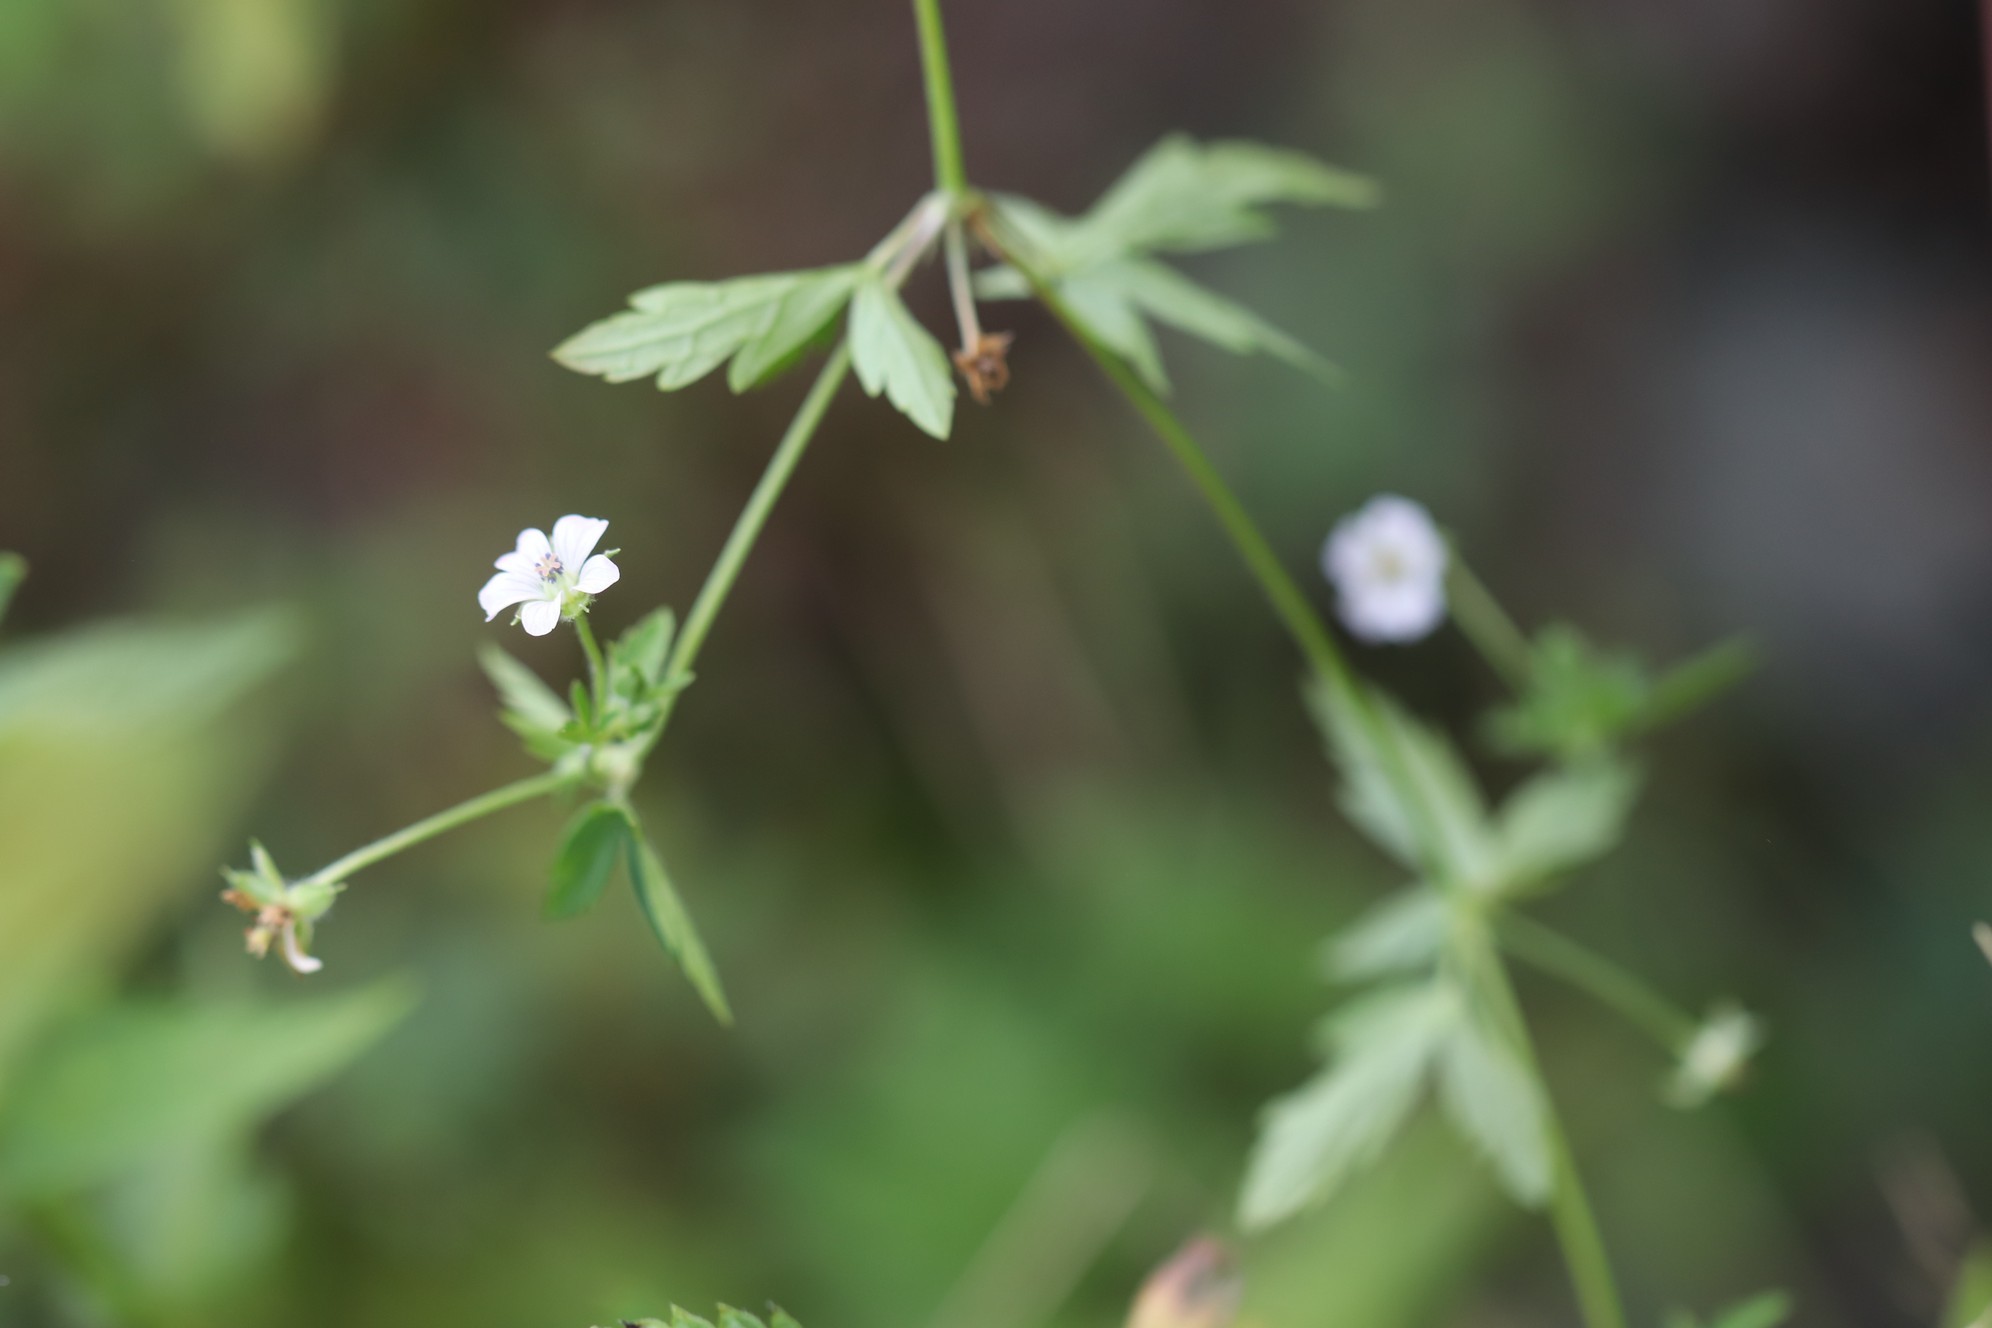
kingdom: Plantae
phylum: Tracheophyta
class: Magnoliopsida
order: Geraniales
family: Geraniaceae
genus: Geranium
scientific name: Geranium sibiricum
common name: Siberian crane's-bill
